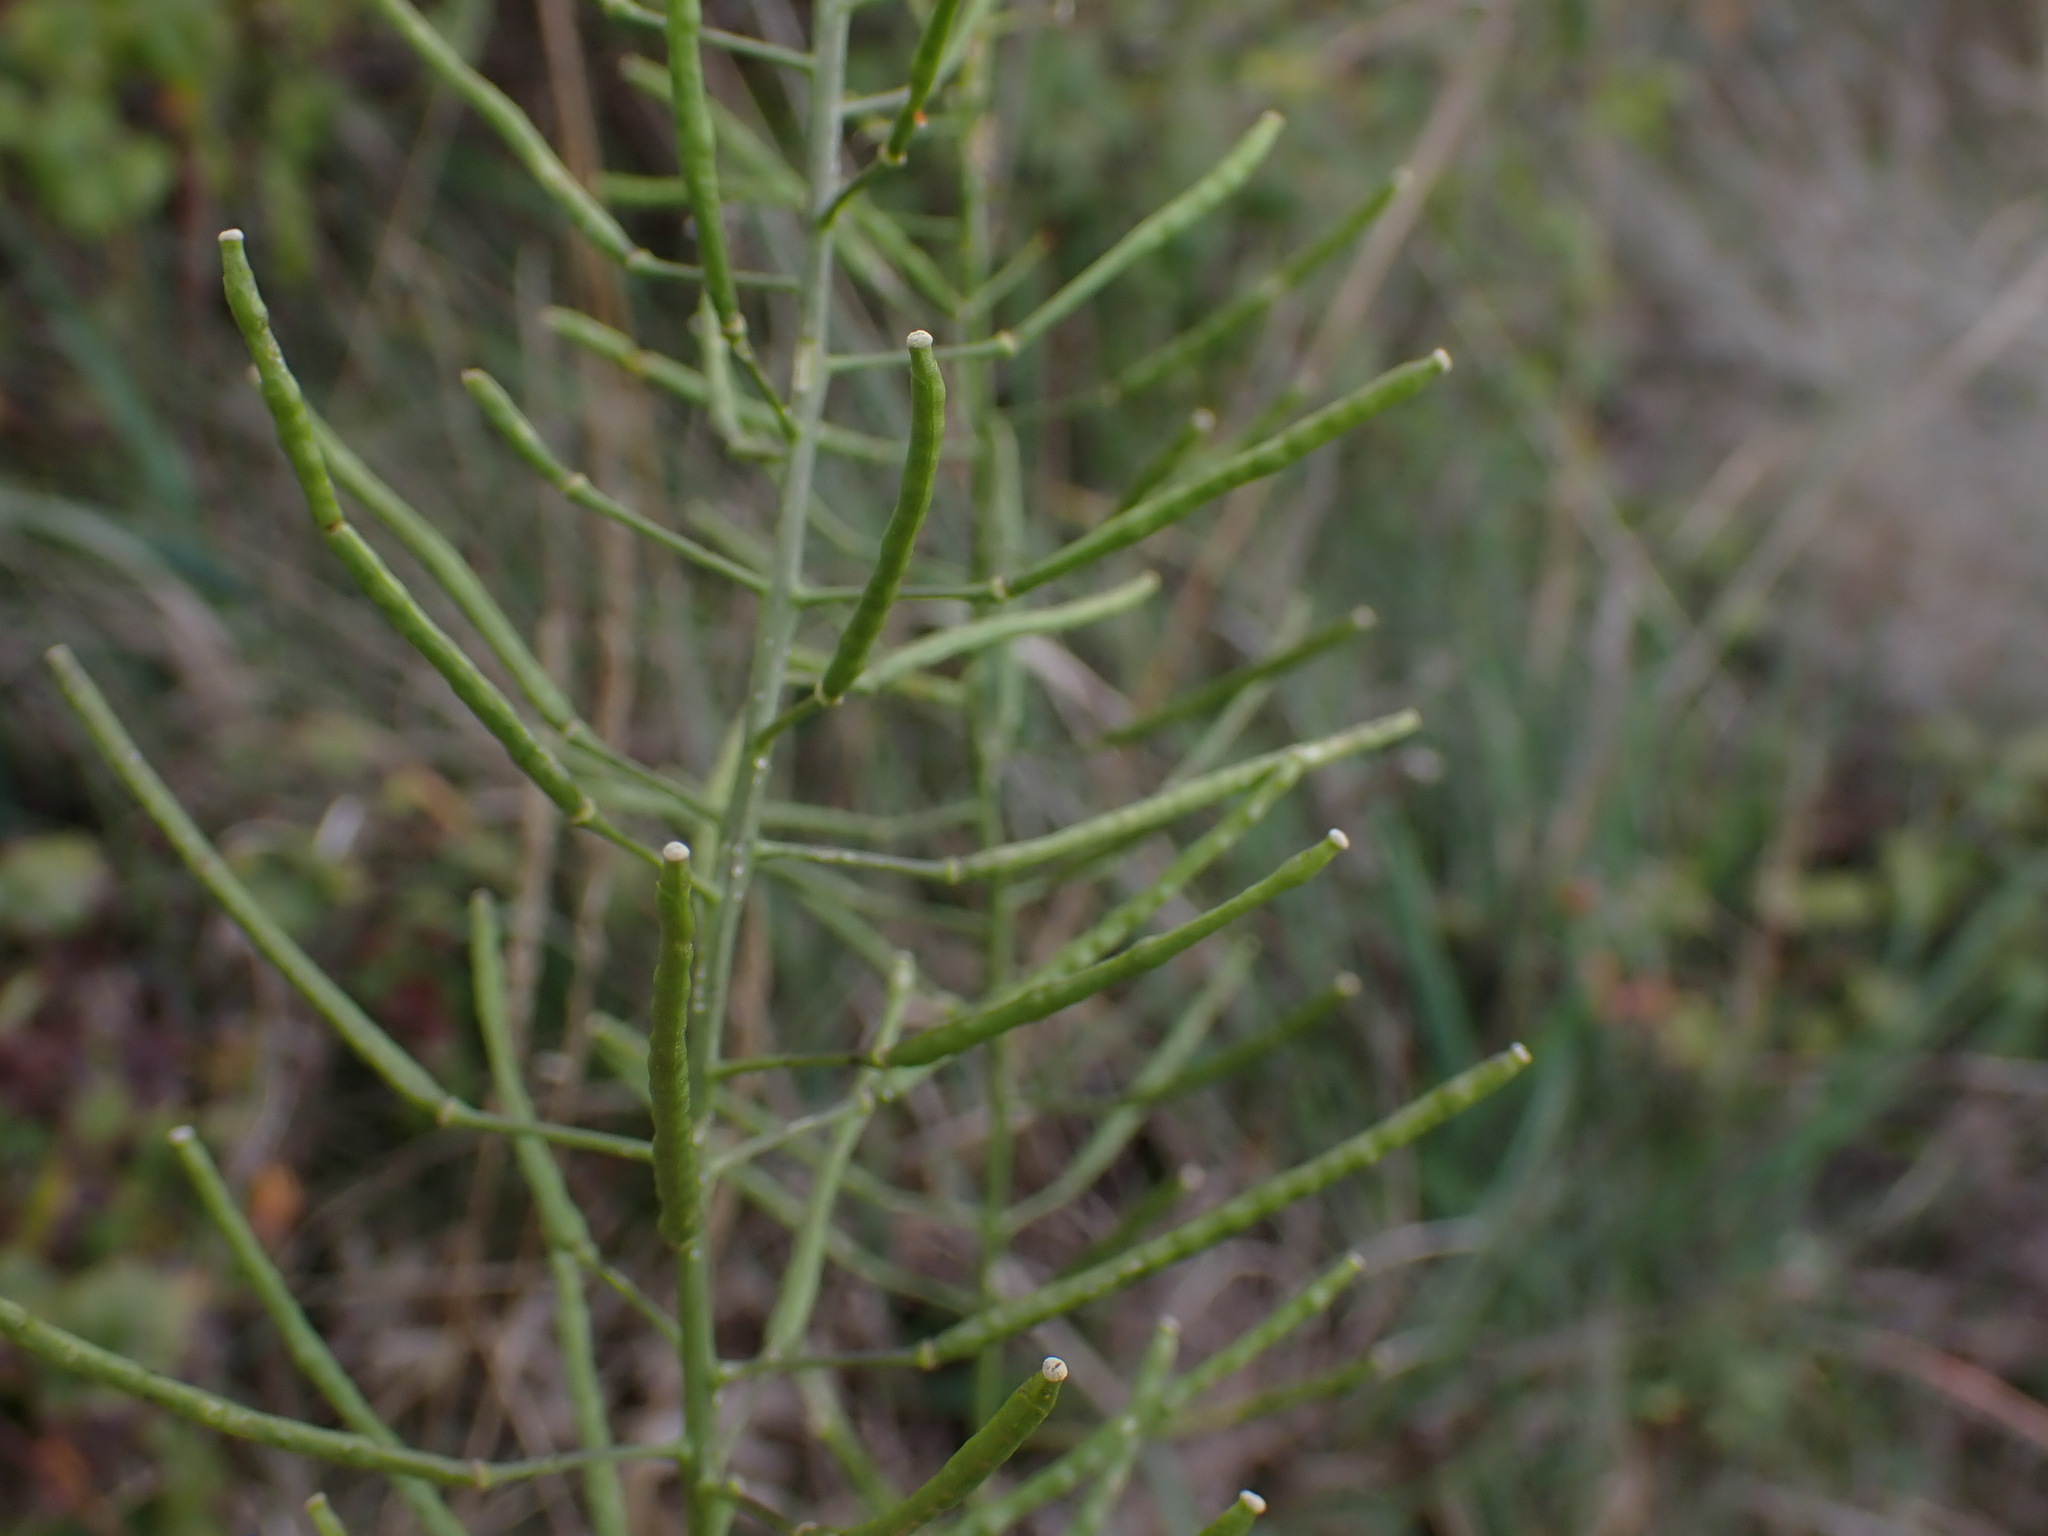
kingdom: Plantae
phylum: Tracheophyta
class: Magnoliopsida
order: Brassicales
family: Brassicaceae
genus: Erucastrum
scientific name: Erucastrum nasturtiifolium
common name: Watercress-leaf rocket
